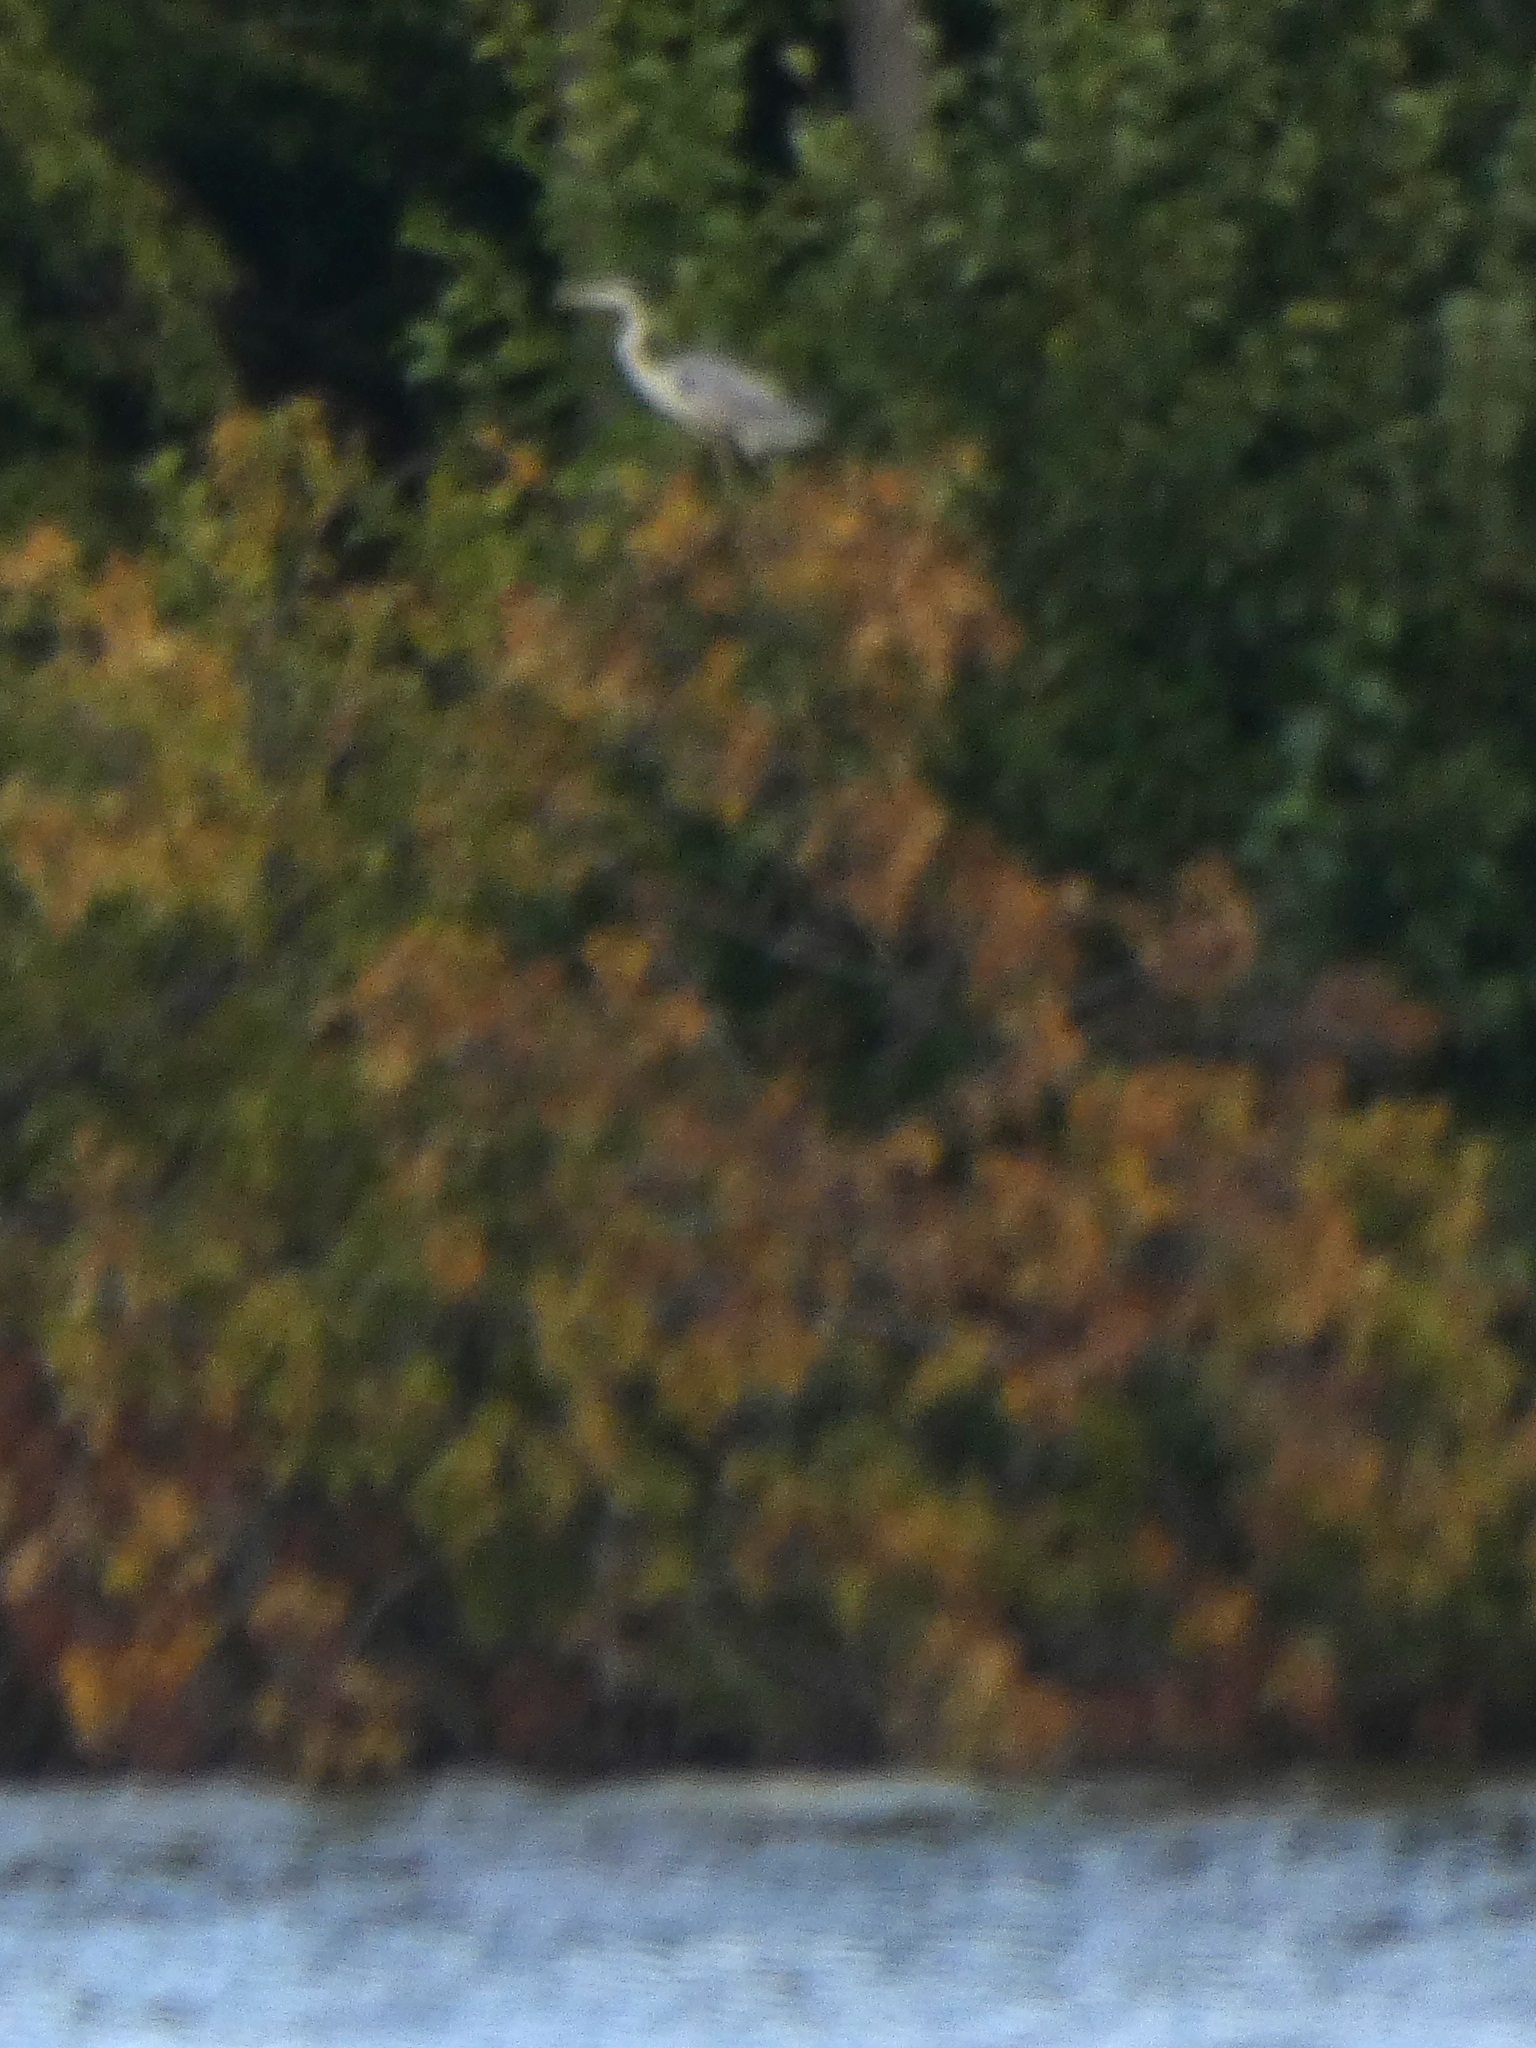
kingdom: Animalia
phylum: Chordata
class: Aves
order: Pelecaniformes
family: Ardeidae
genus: Ardea
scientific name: Ardea cinerea
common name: Grey heron
